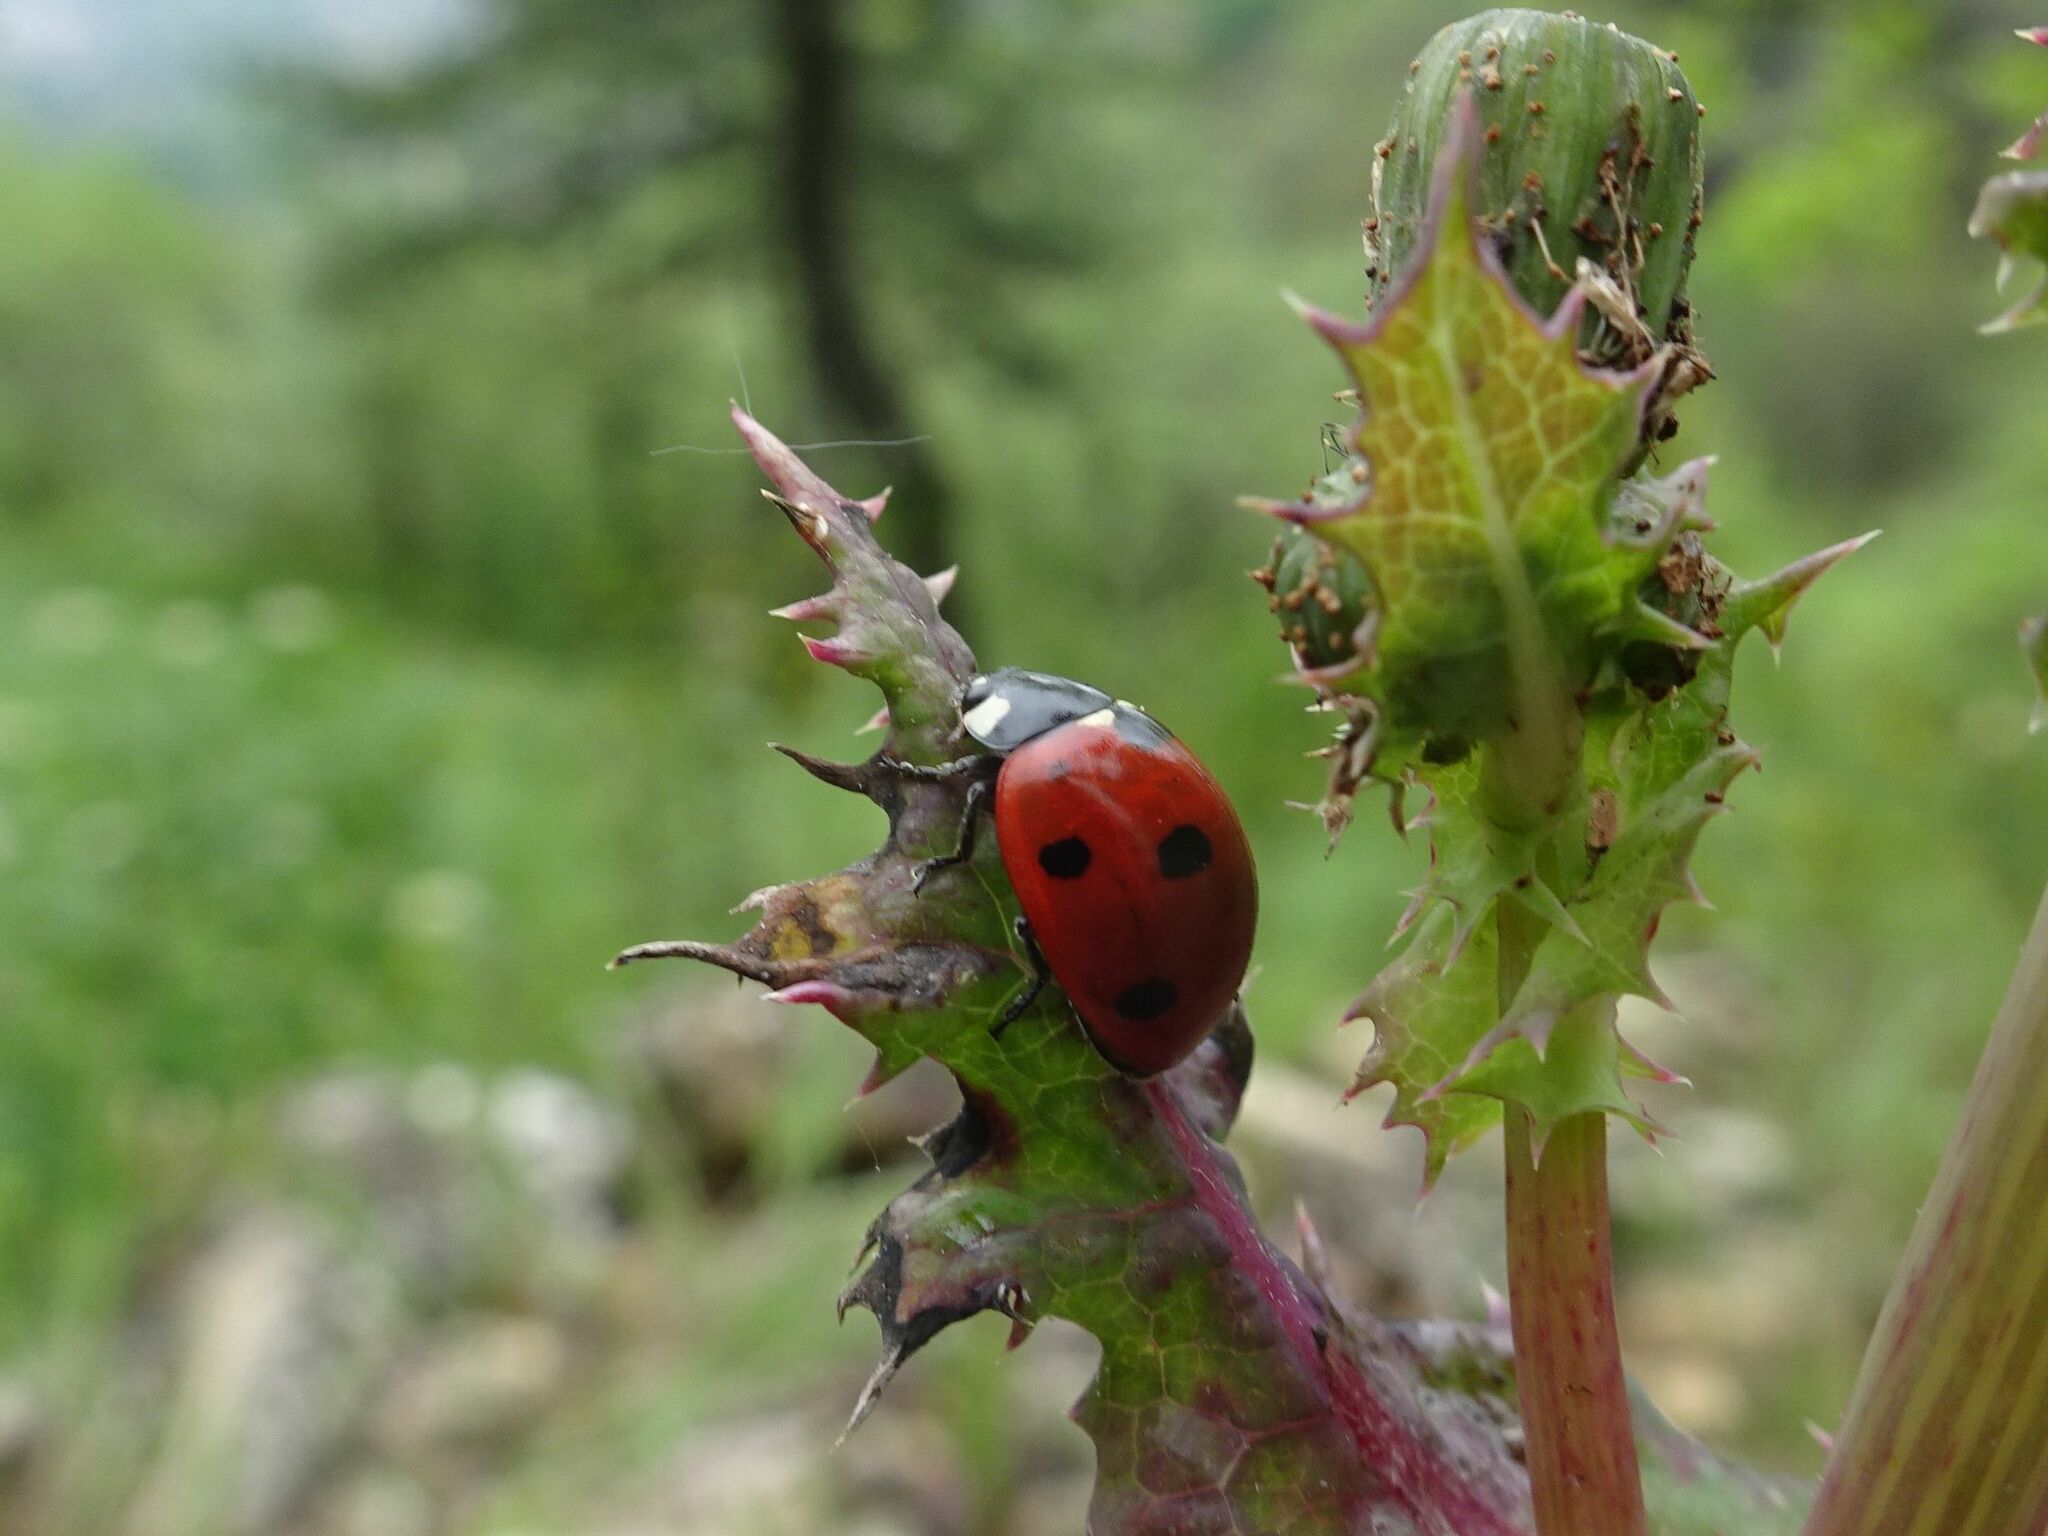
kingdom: Animalia
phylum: Arthropoda
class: Insecta
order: Coleoptera
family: Coccinellidae
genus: Coccinella
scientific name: Coccinella septempunctata
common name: Sevenspotted lady beetle
